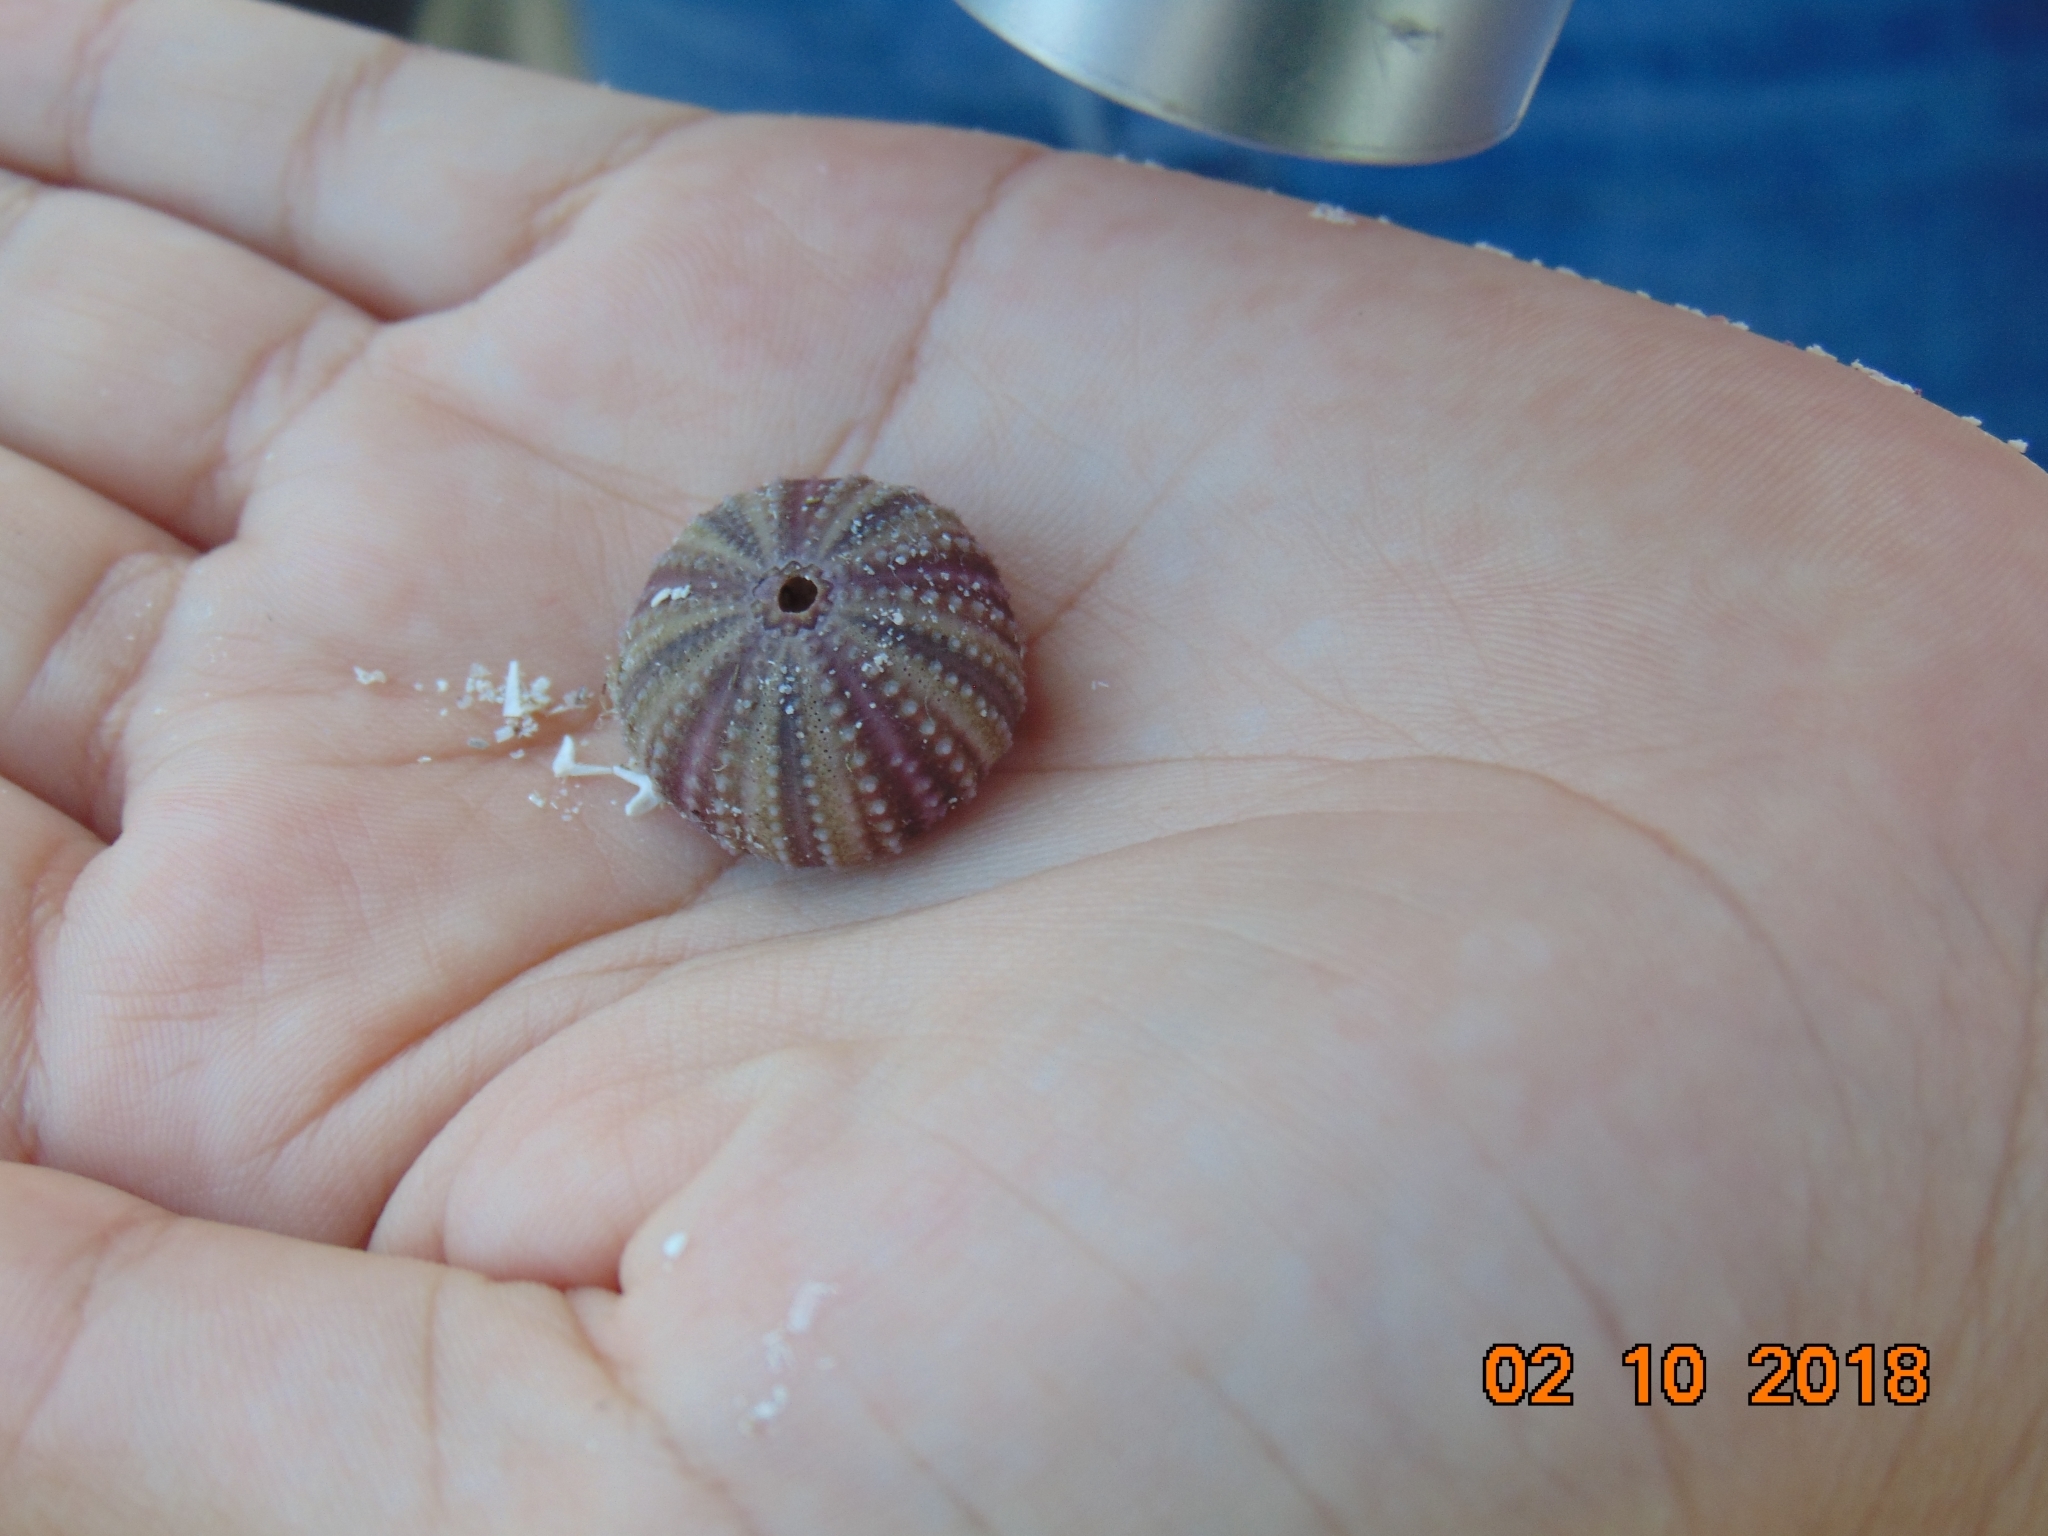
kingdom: Animalia
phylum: Echinodermata
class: Echinoidea
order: Camarodonta
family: Toxopneustidae
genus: Lytechinus
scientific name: Lytechinus variegatus
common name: Variegated urchin
